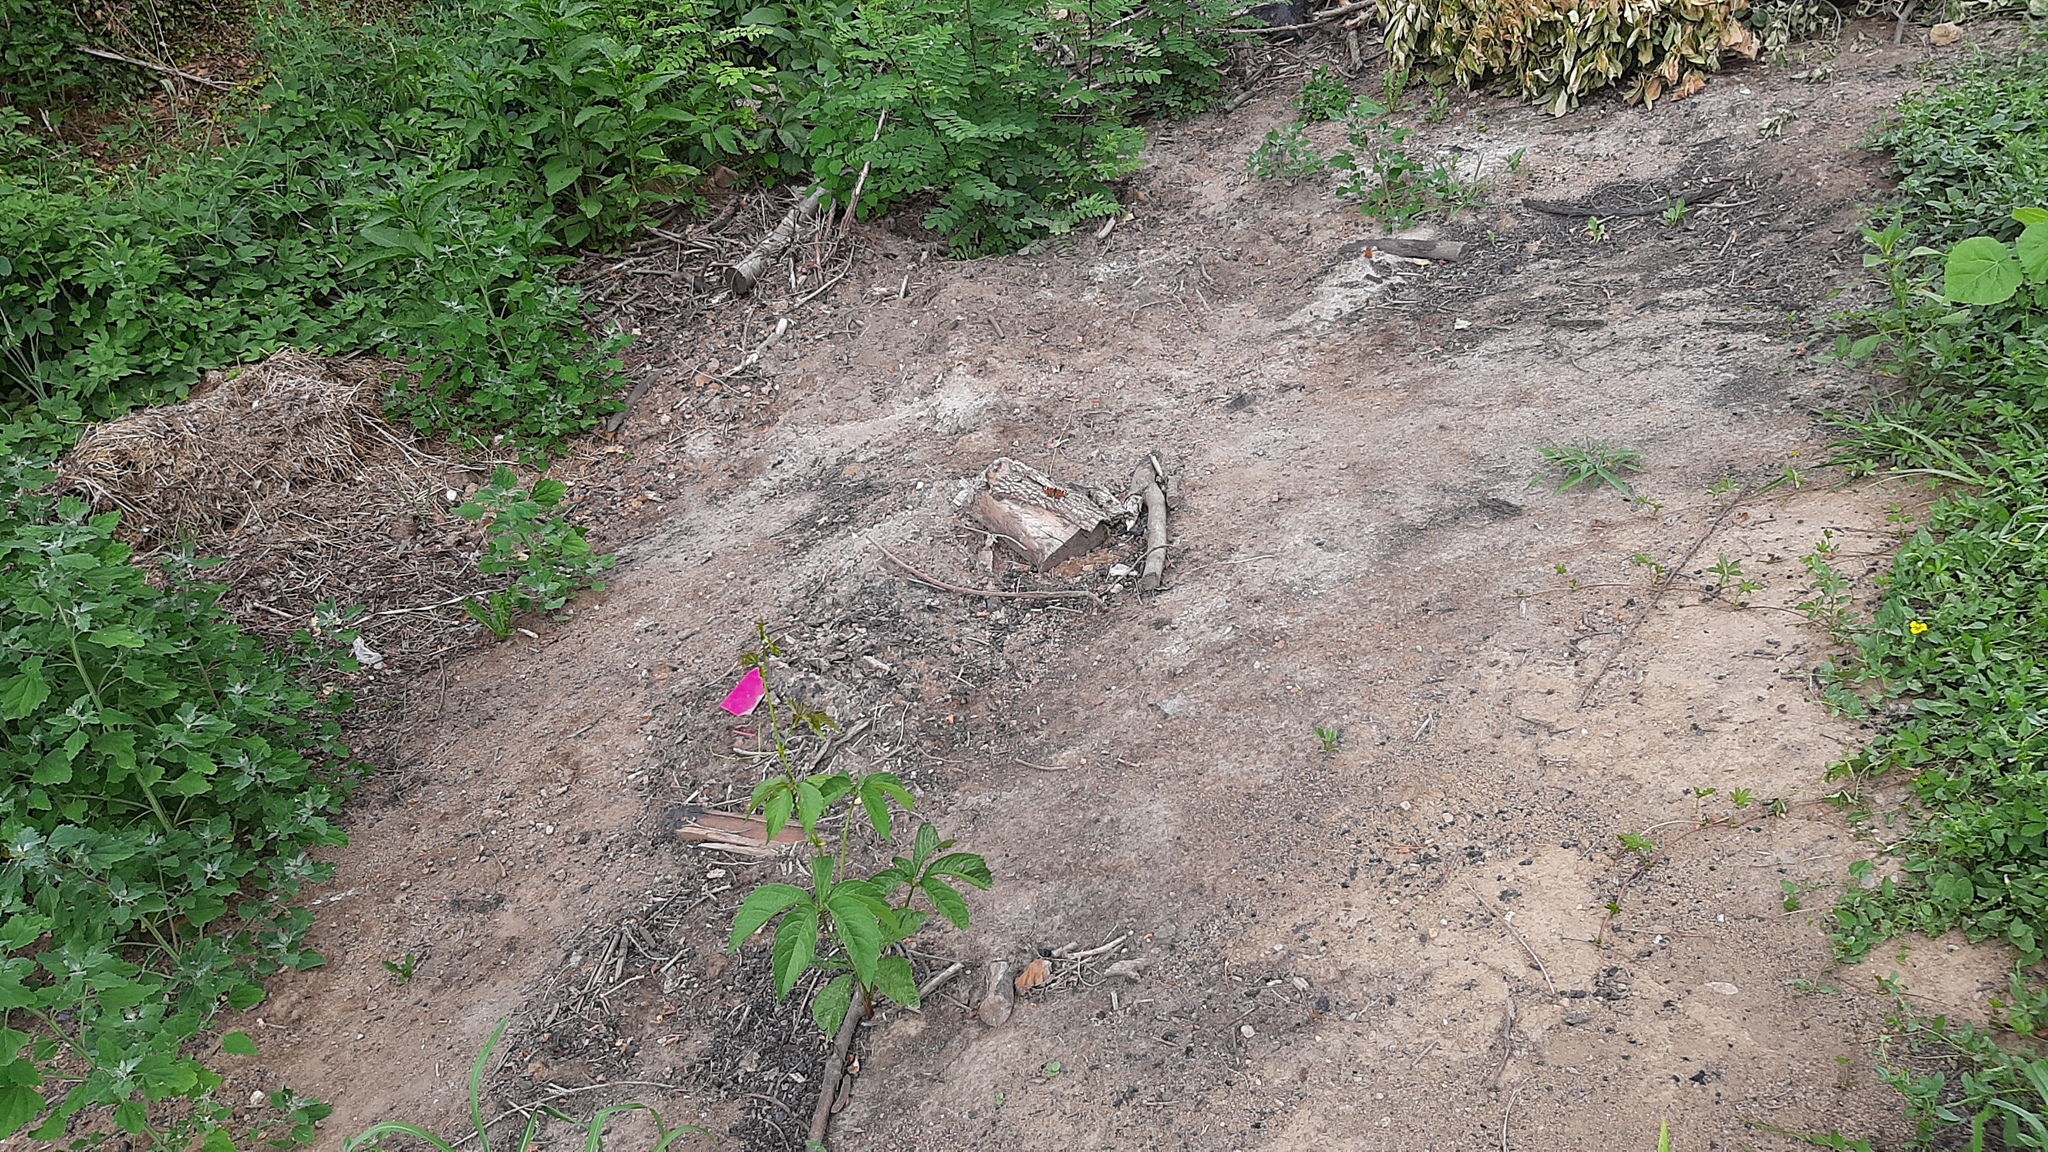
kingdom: Animalia
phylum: Arthropoda
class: Insecta
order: Lepidoptera
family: Nymphalidae
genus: Aglais
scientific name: Aglais io
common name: Peacock
